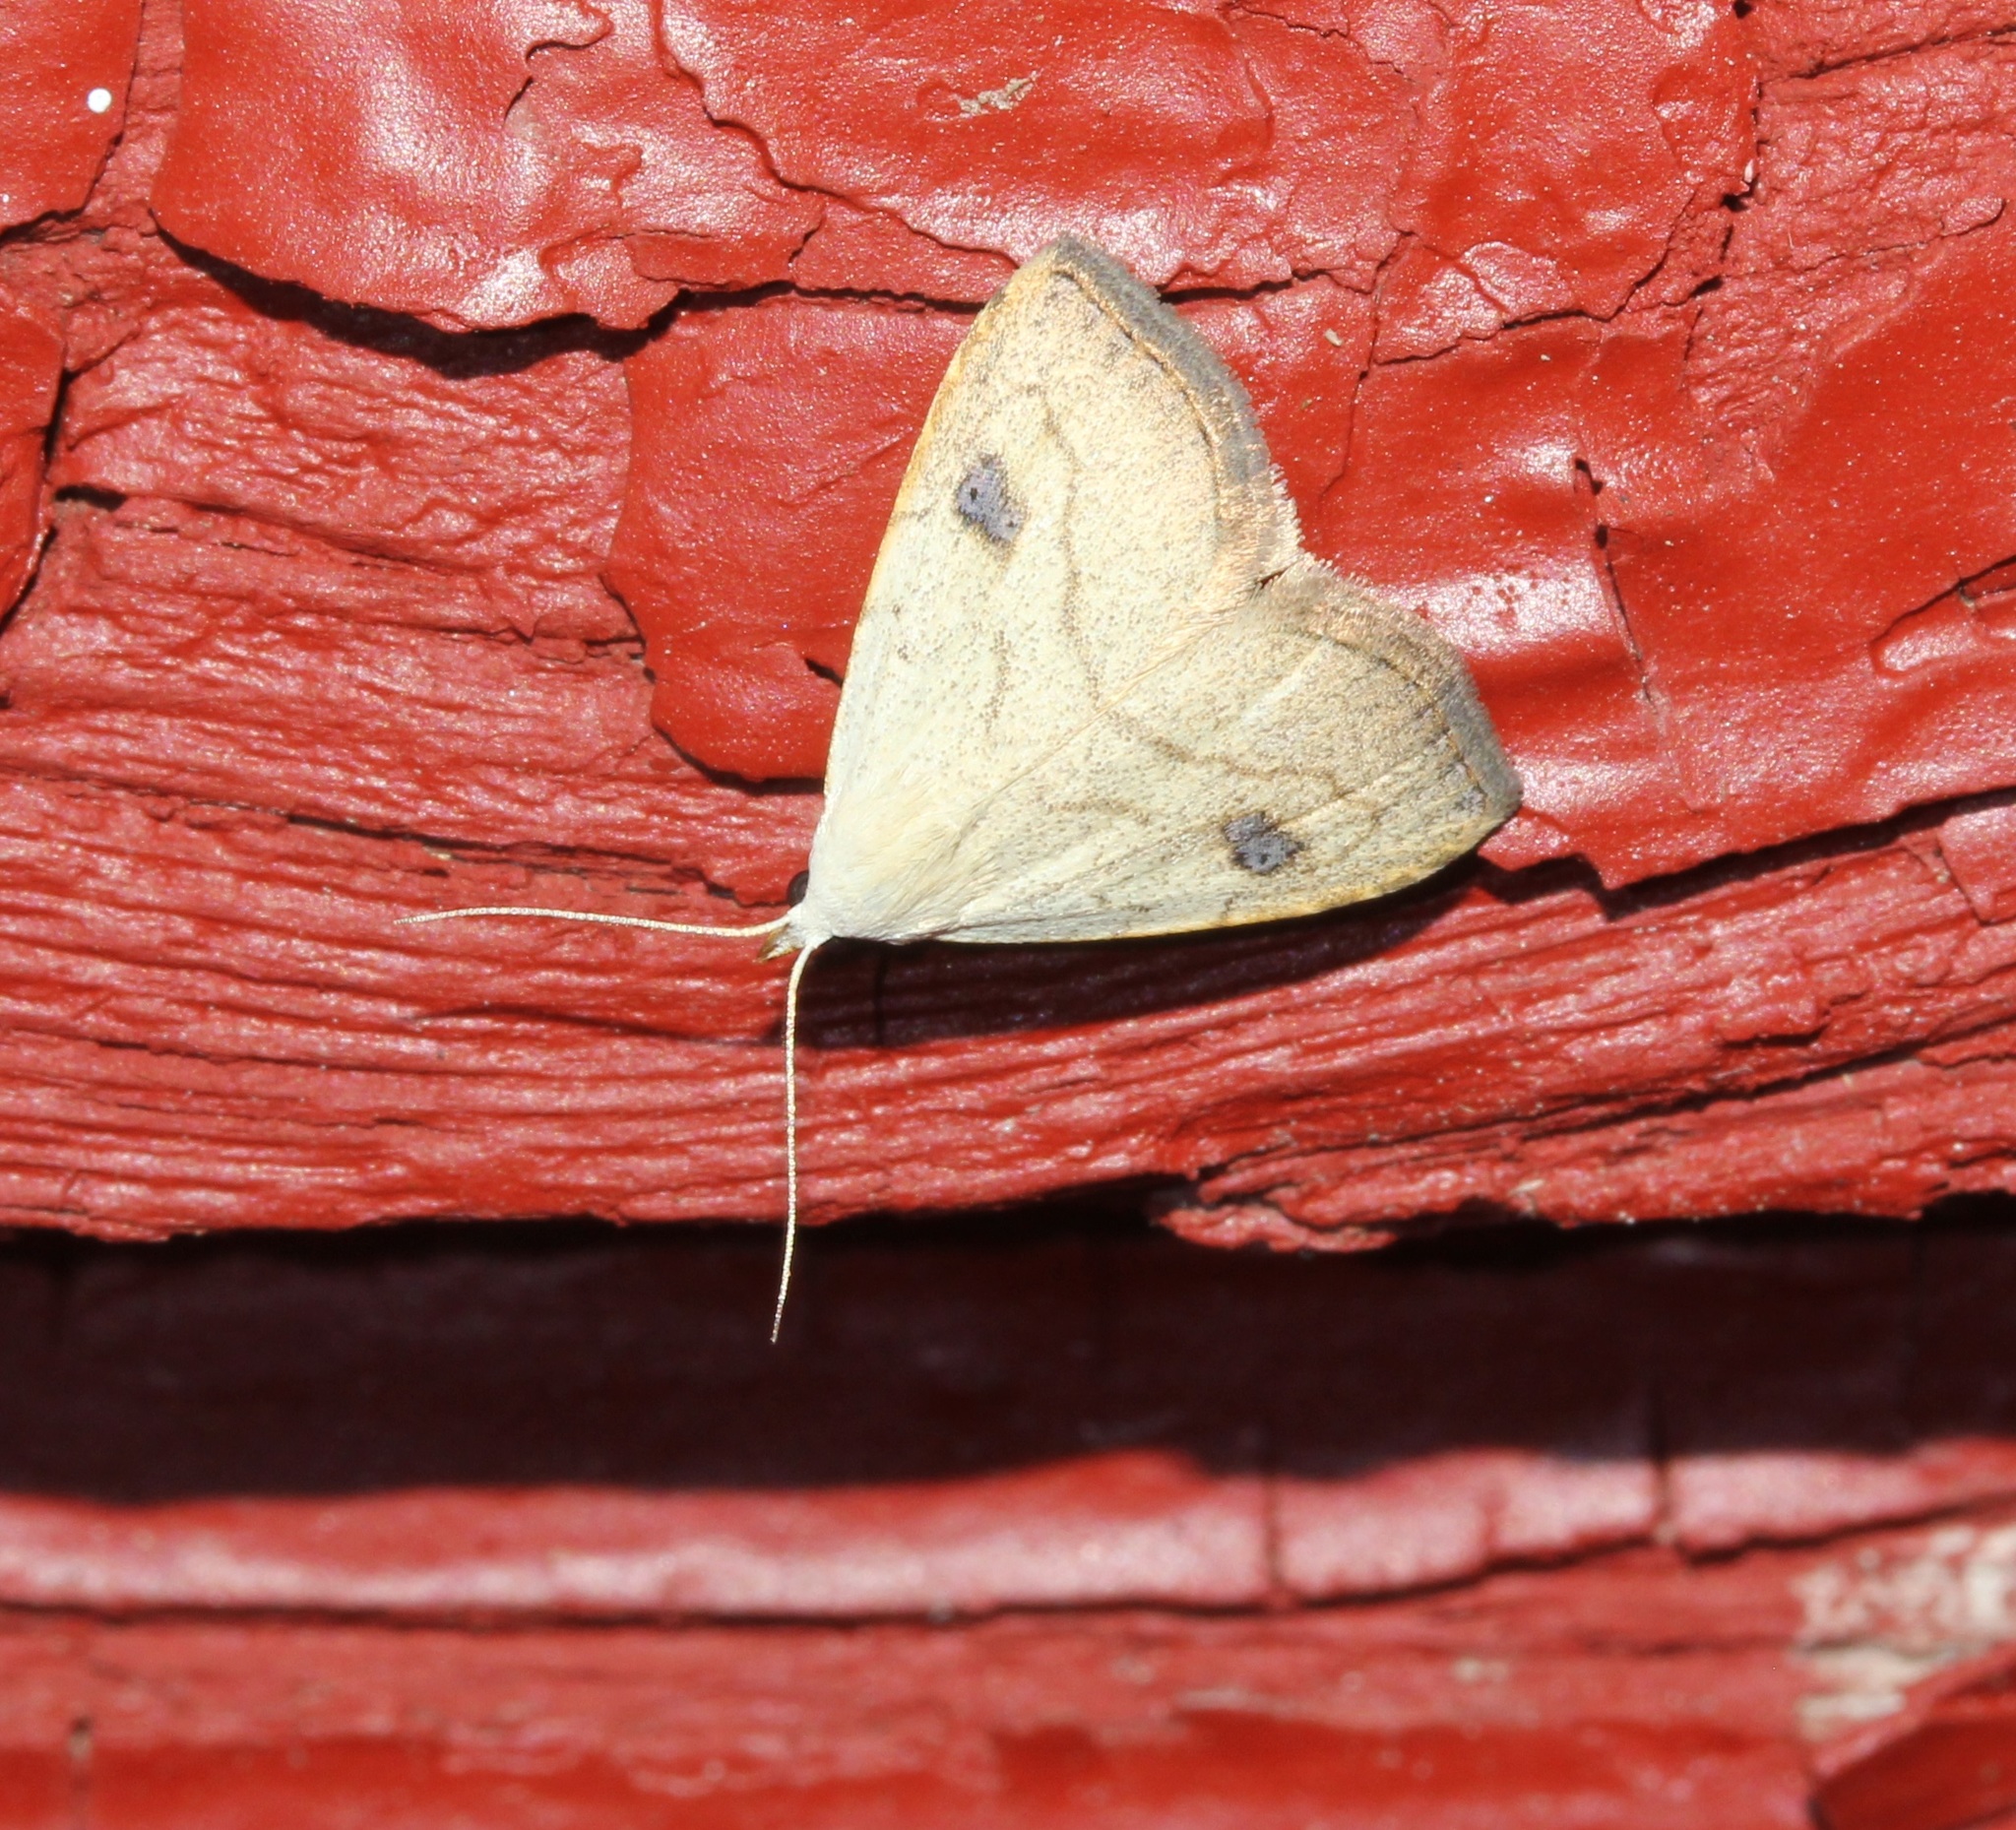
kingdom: Animalia
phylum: Arthropoda
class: Insecta
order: Lepidoptera
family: Erebidae
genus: Rivula
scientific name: Rivula propinqualis
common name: Spotted grass moth
